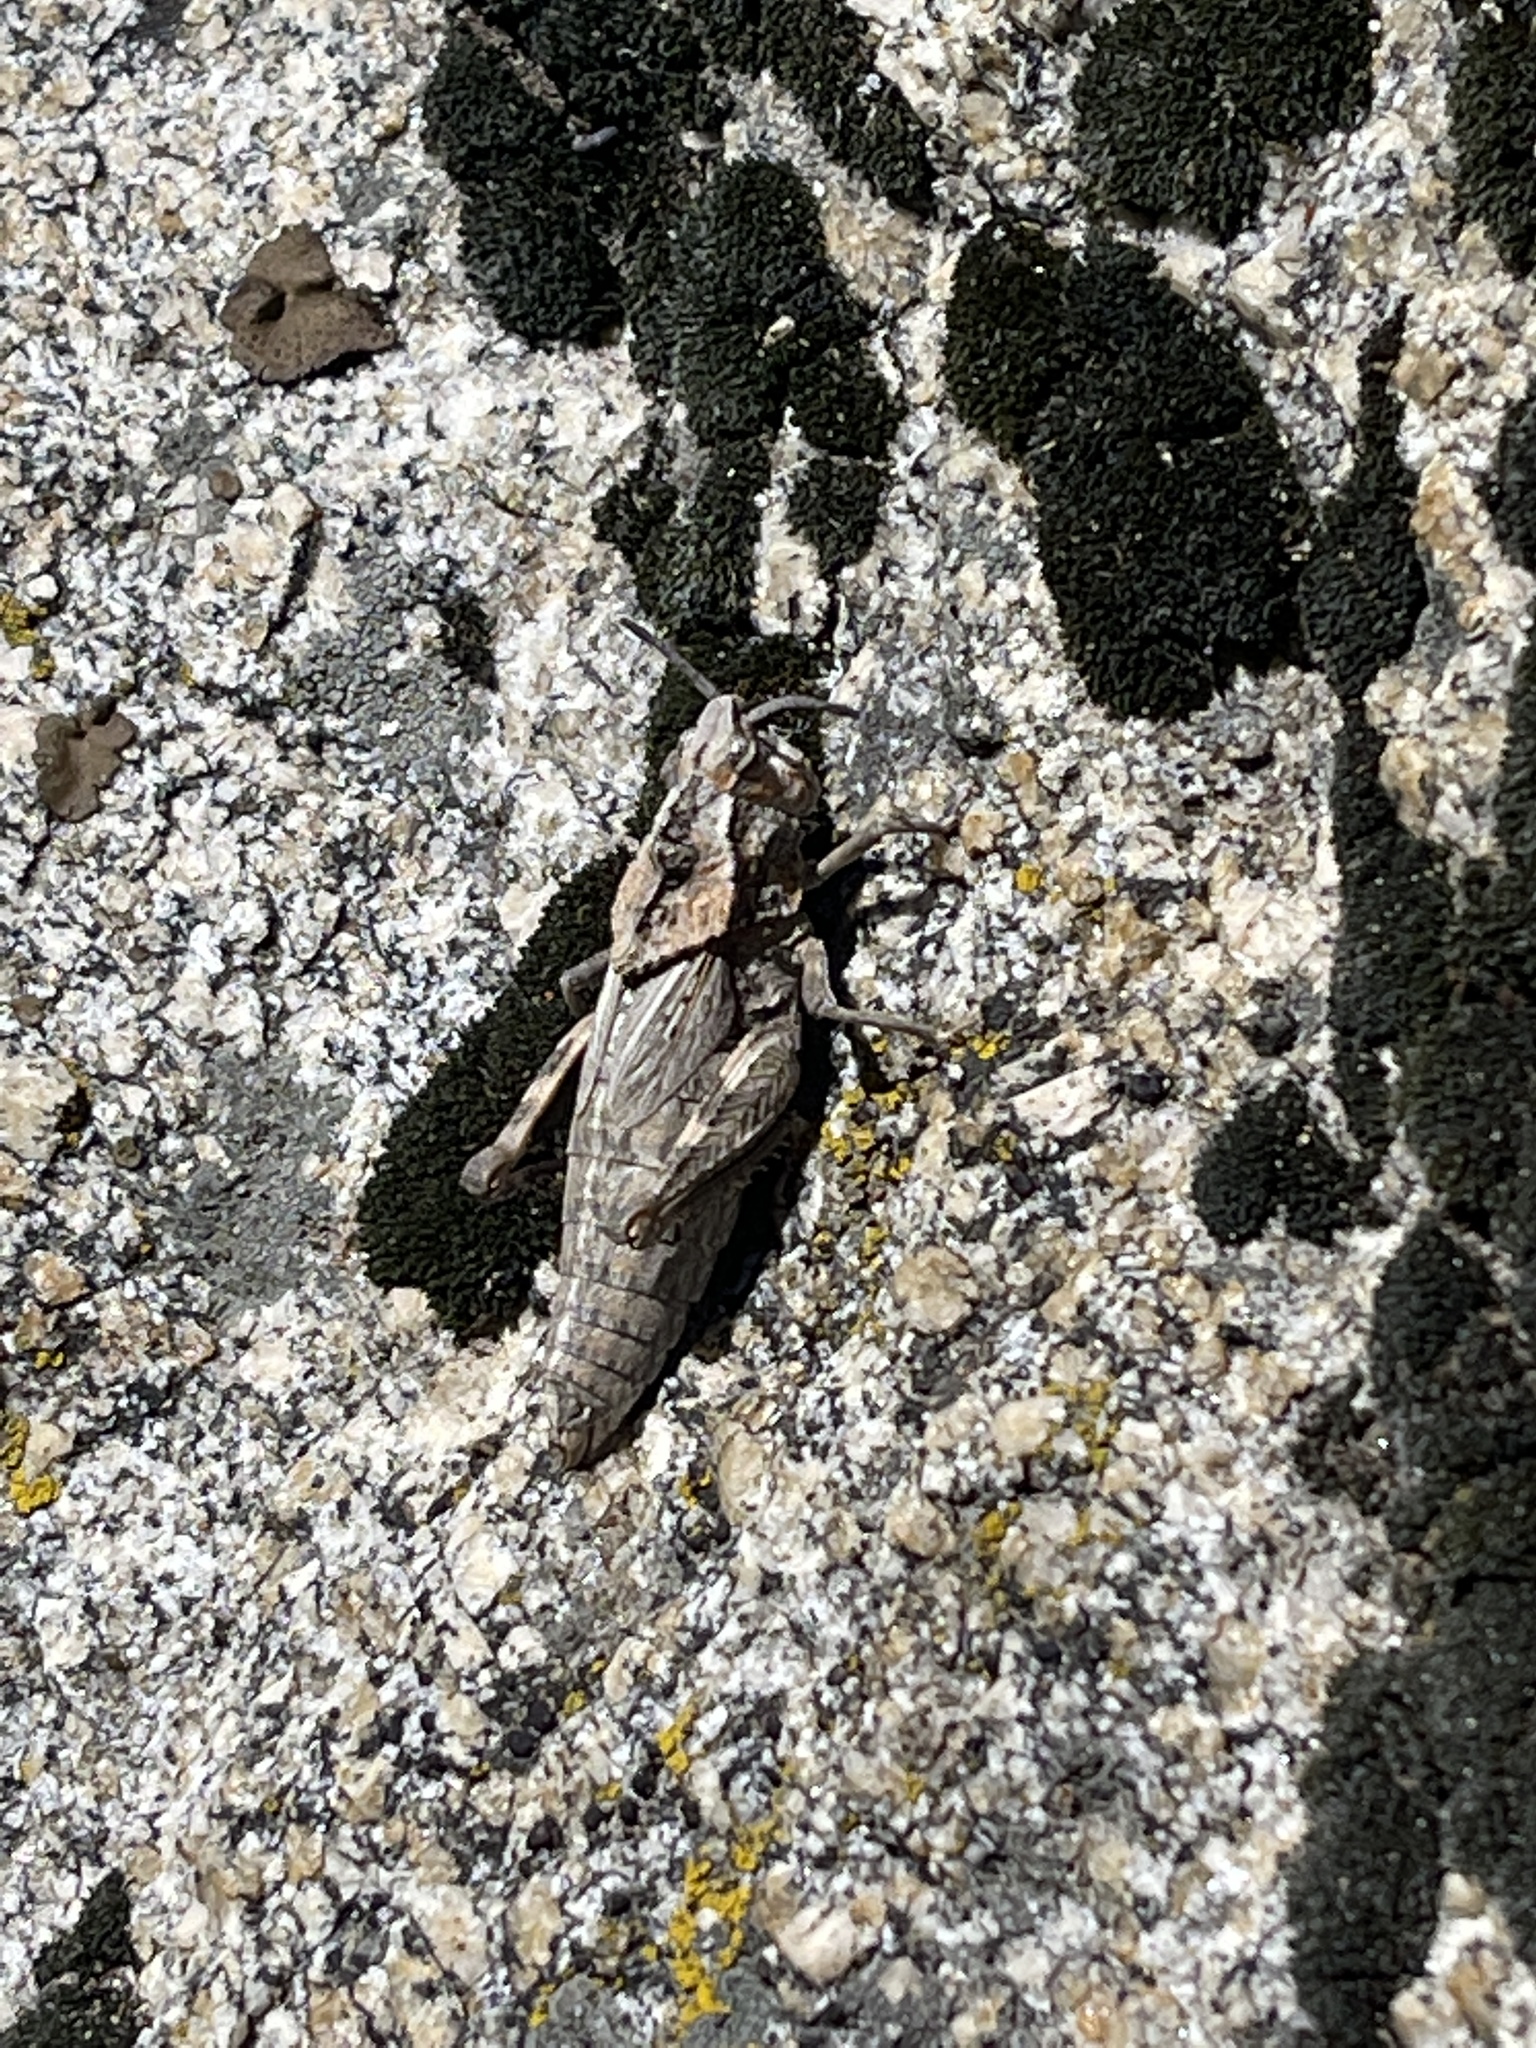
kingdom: Animalia
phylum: Arthropoda
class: Insecta
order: Orthoptera
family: Romaleidae
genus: Dracotettix
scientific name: Dracotettix monstrosus
